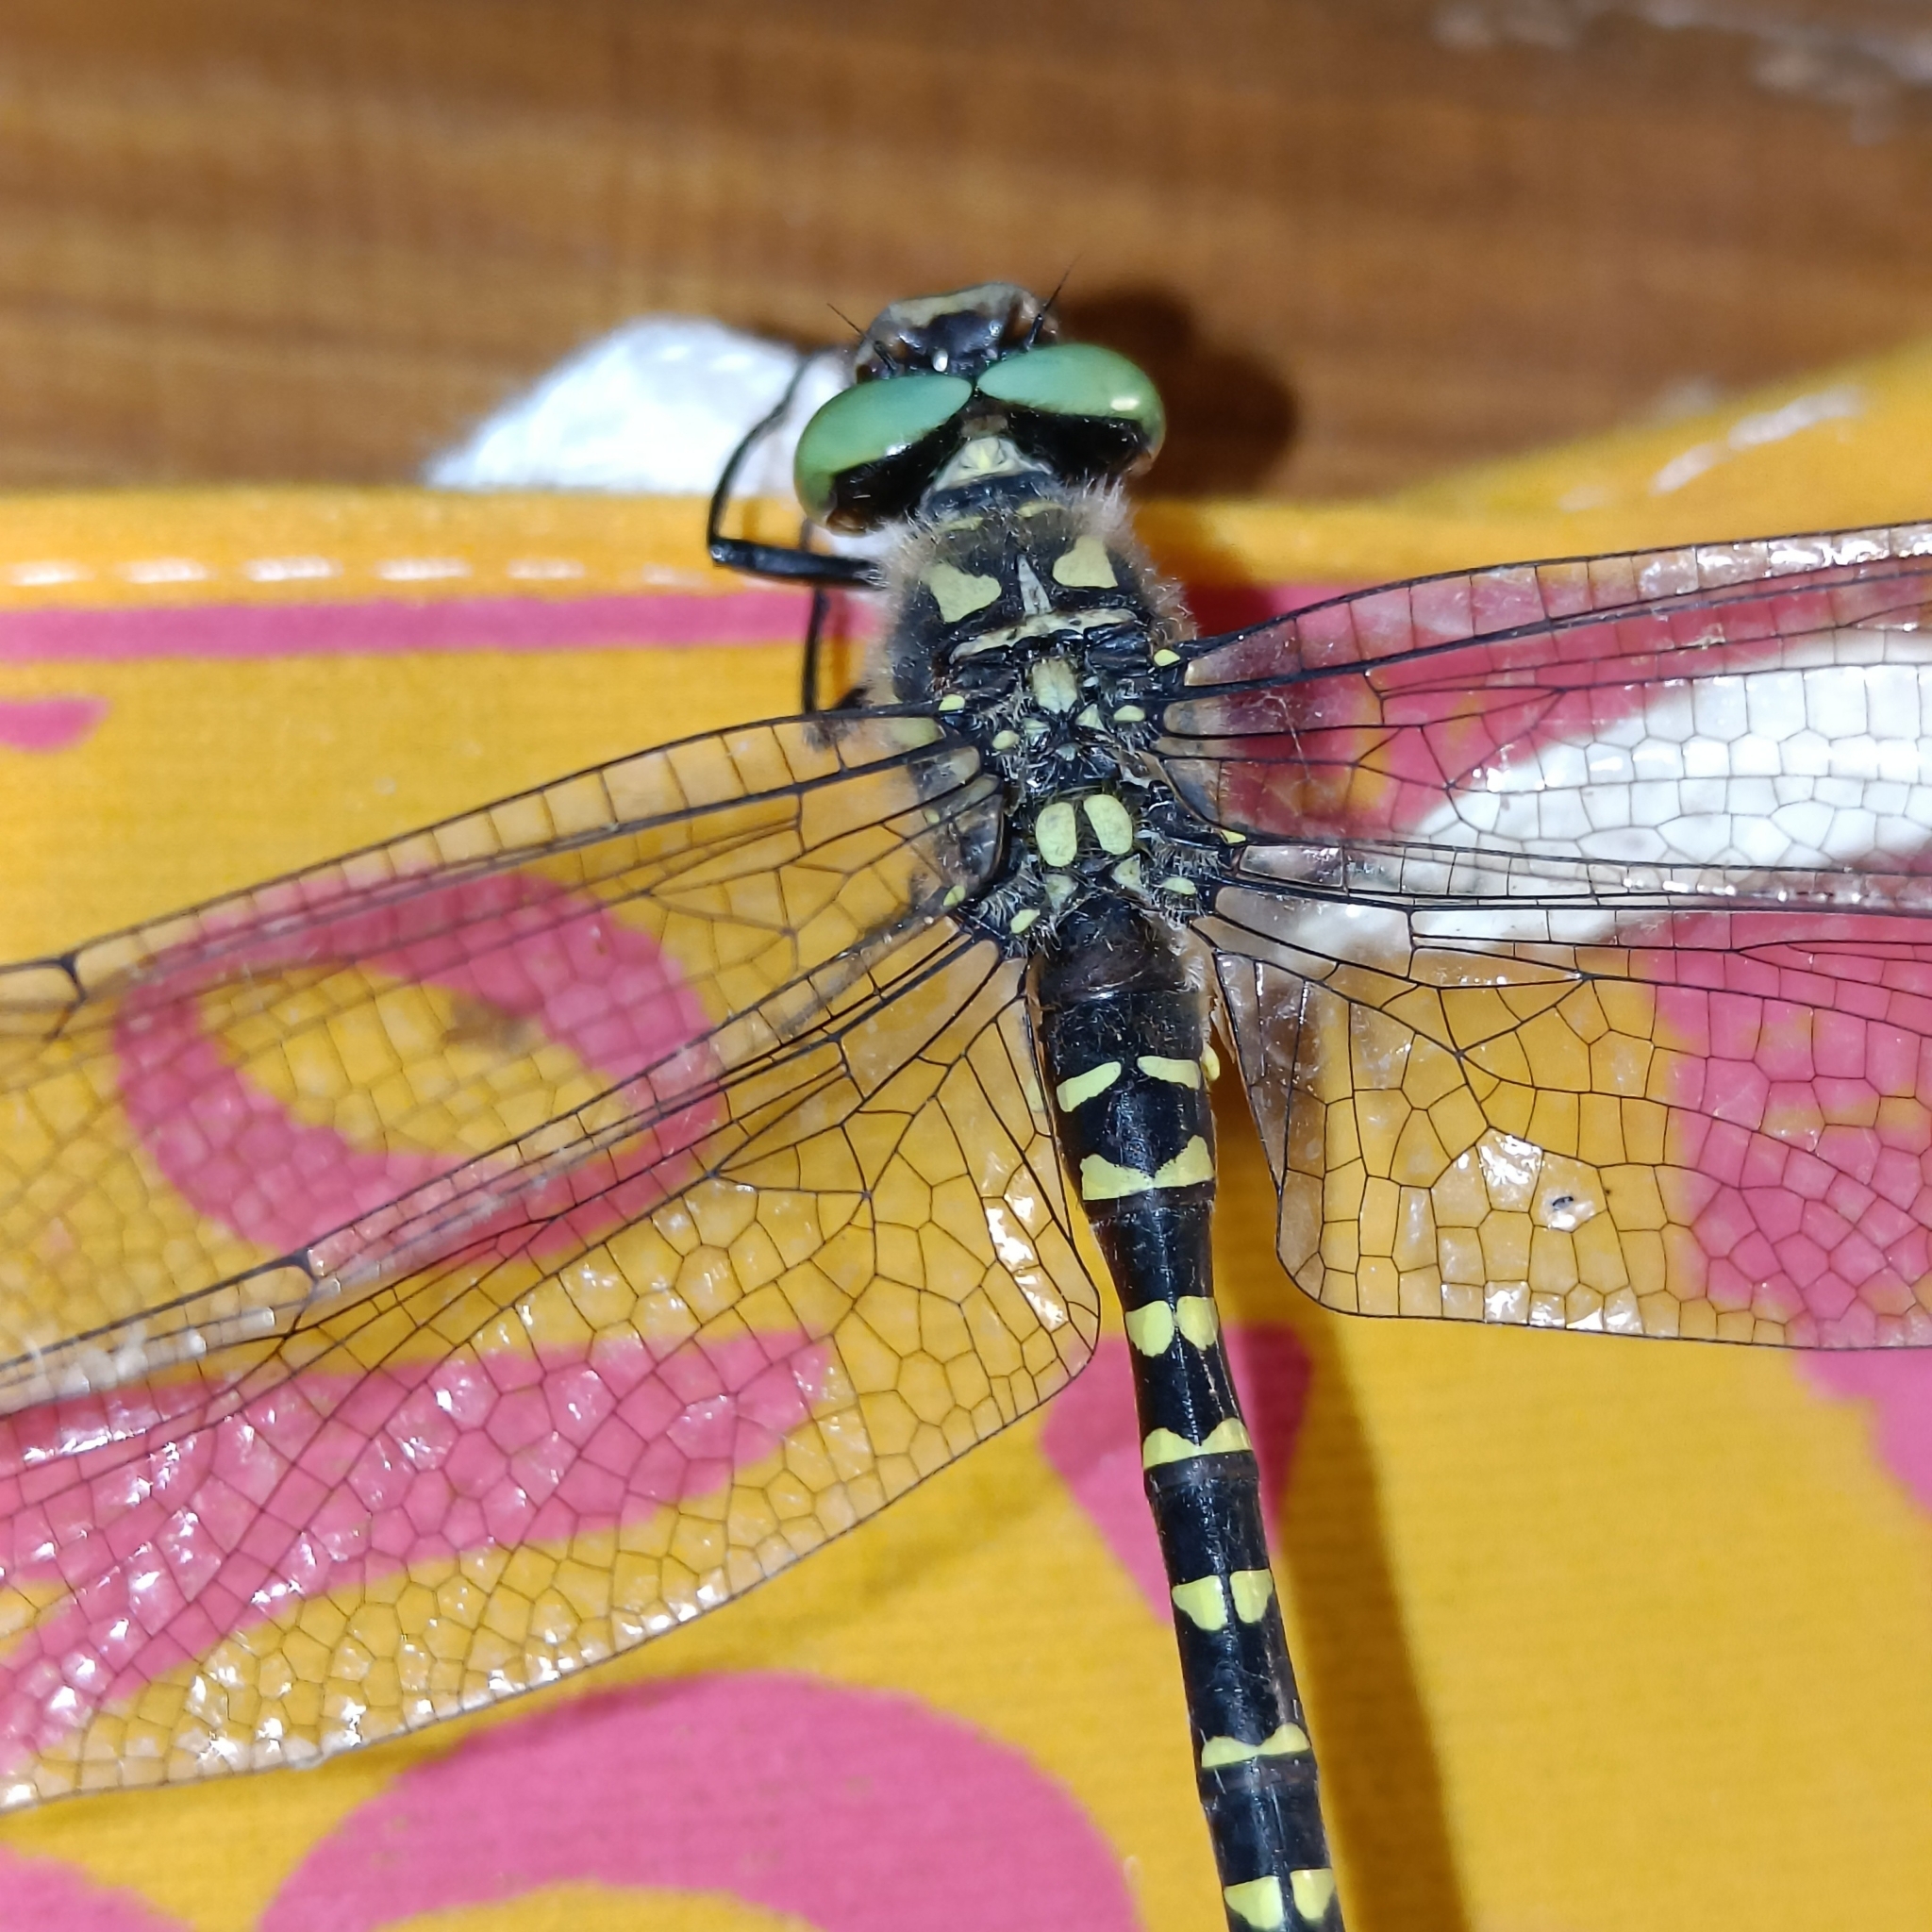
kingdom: Animalia
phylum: Arthropoda
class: Insecta
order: Odonata
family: Cordulegastridae
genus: Cordulegaster
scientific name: Cordulegaster brevistigma
